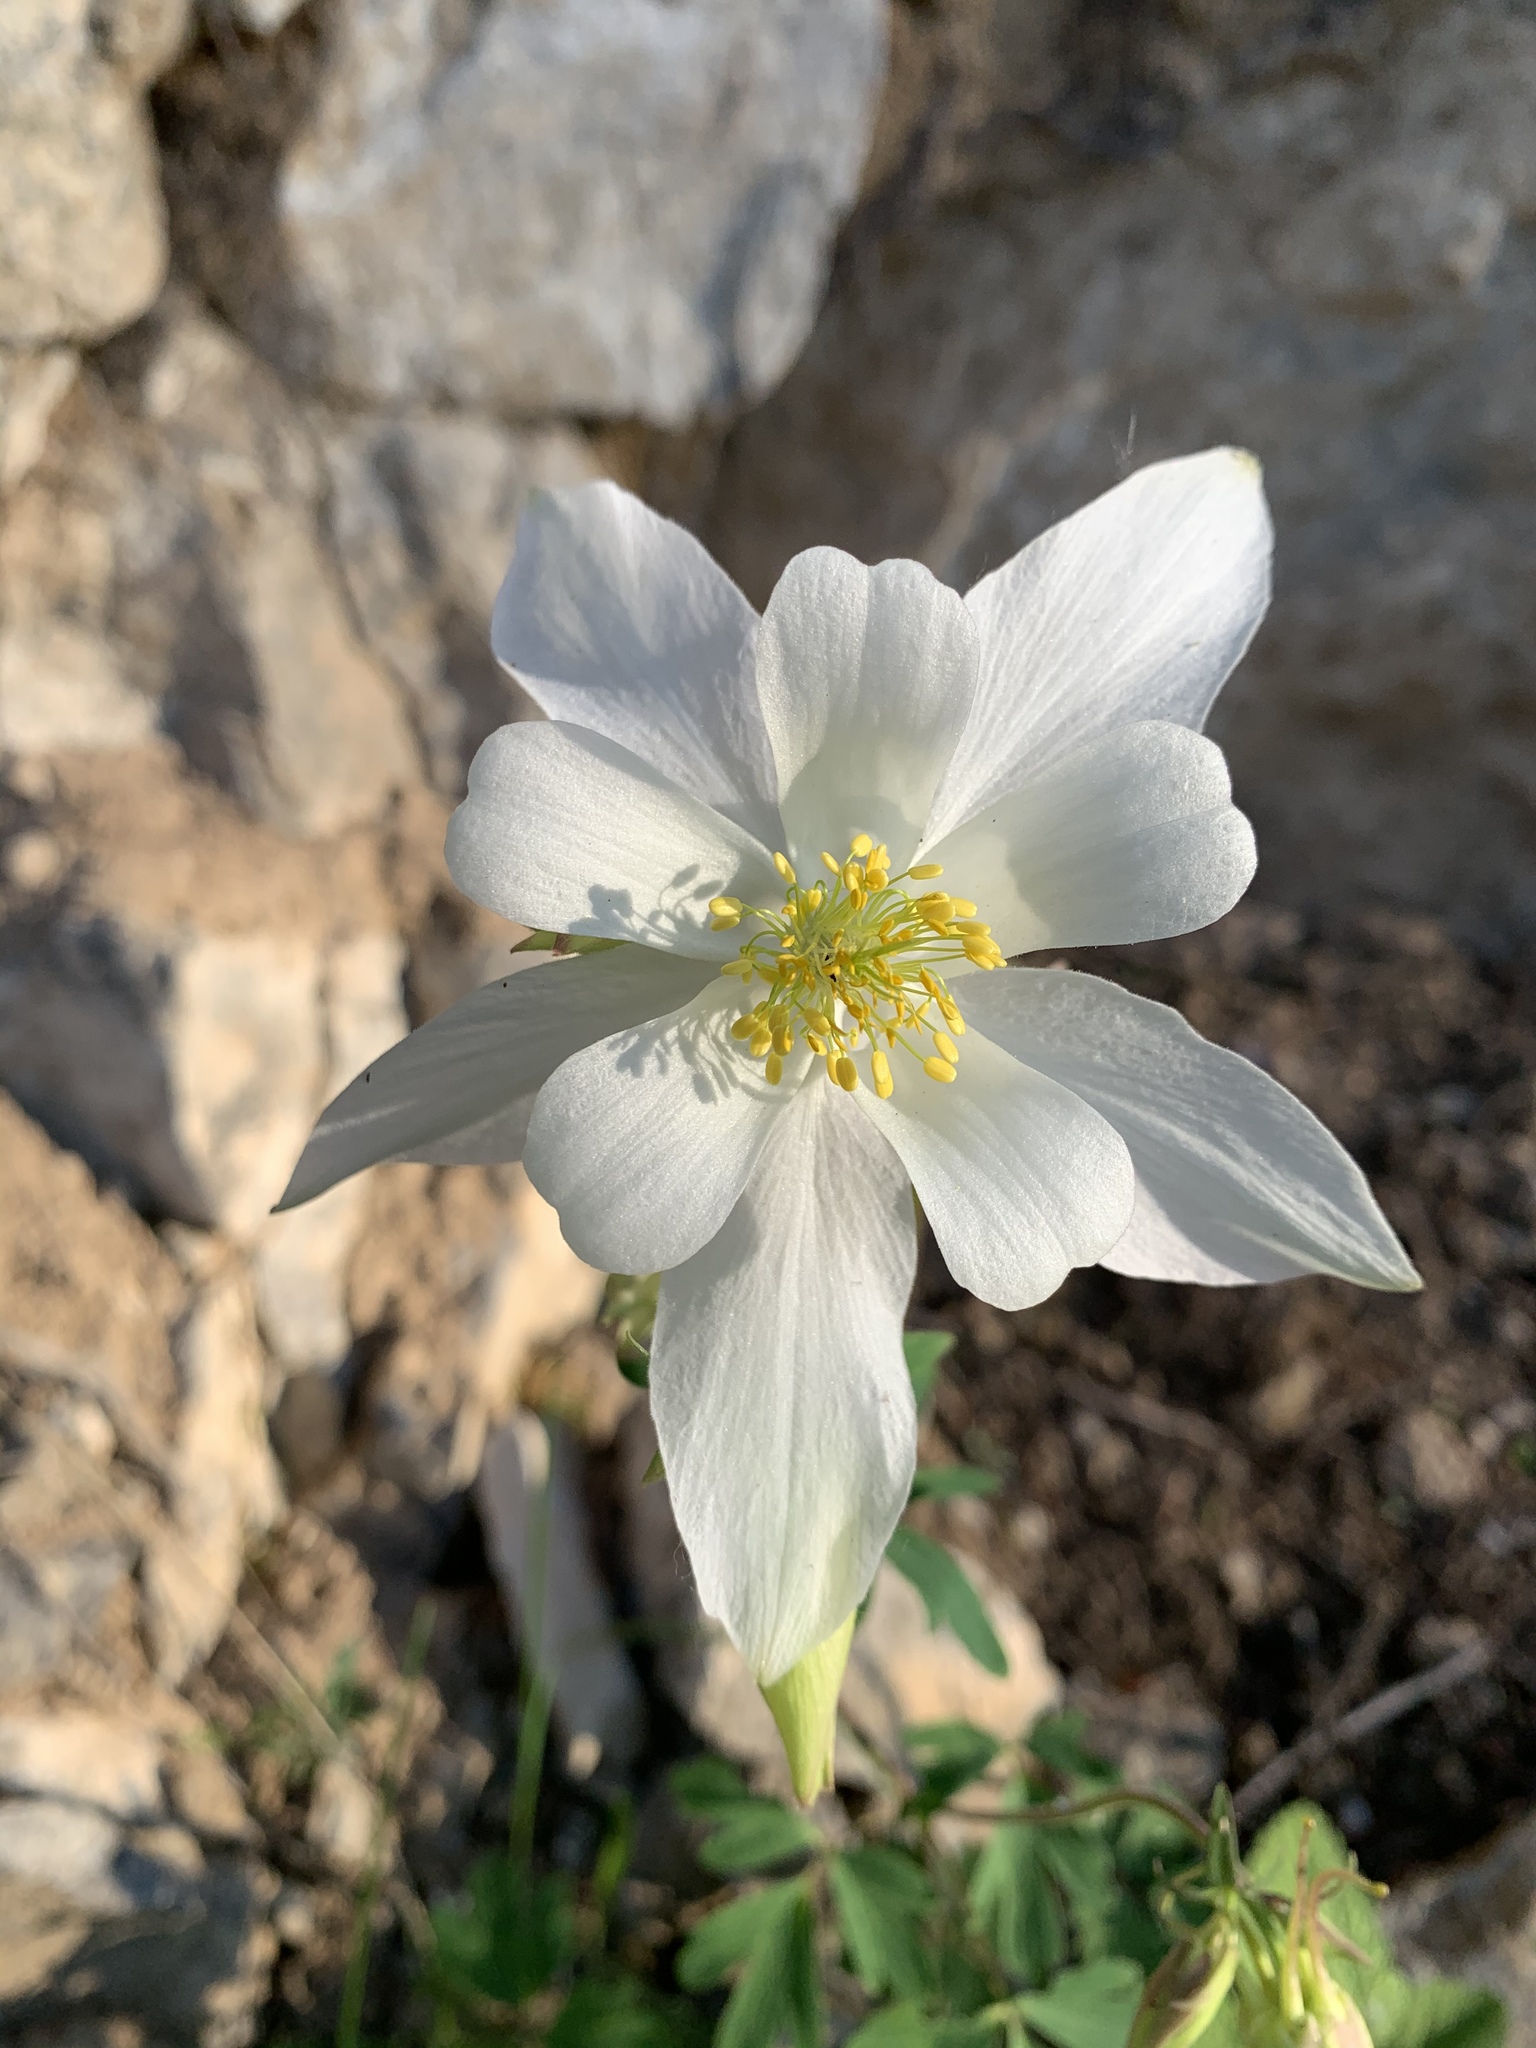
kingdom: Plantae
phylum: Tracheophyta
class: Magnoliopsida
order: Ranunculales
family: Ranunculaceae
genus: Aquilegia
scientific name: Aquilegia coerulea
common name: Rocky mountain columbine
